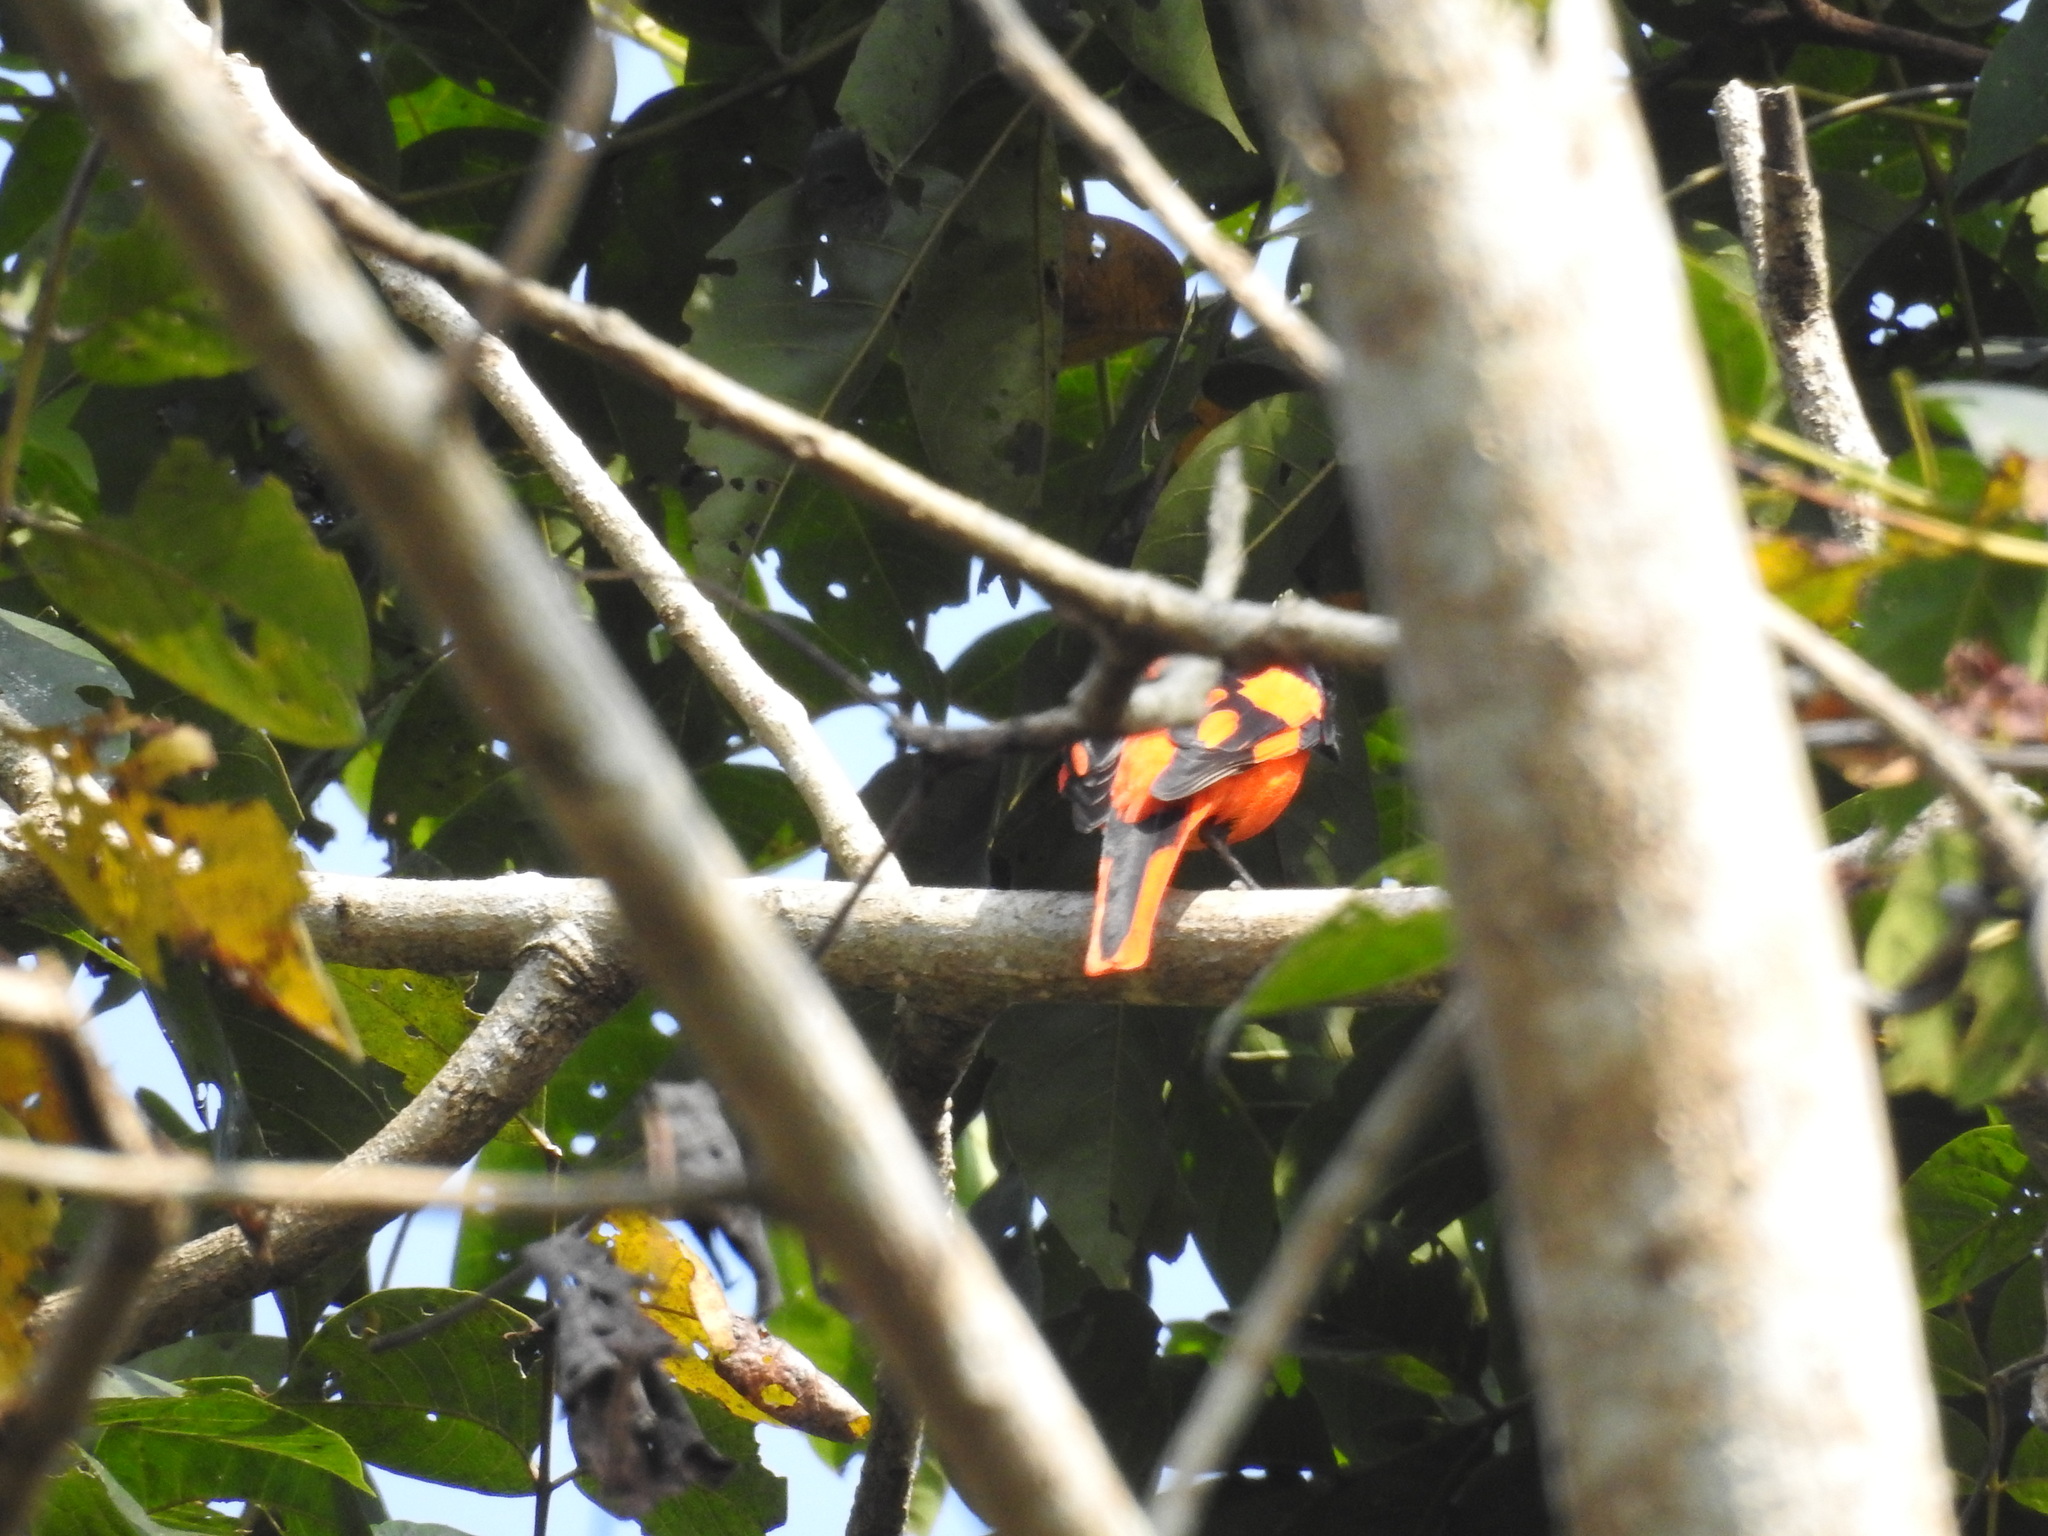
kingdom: Animalia
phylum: Chordata
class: Aves
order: Passeriformes
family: Campephagidae
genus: Pericrocotus
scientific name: Pericrocotus speciosus
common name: Scarlet minivet
